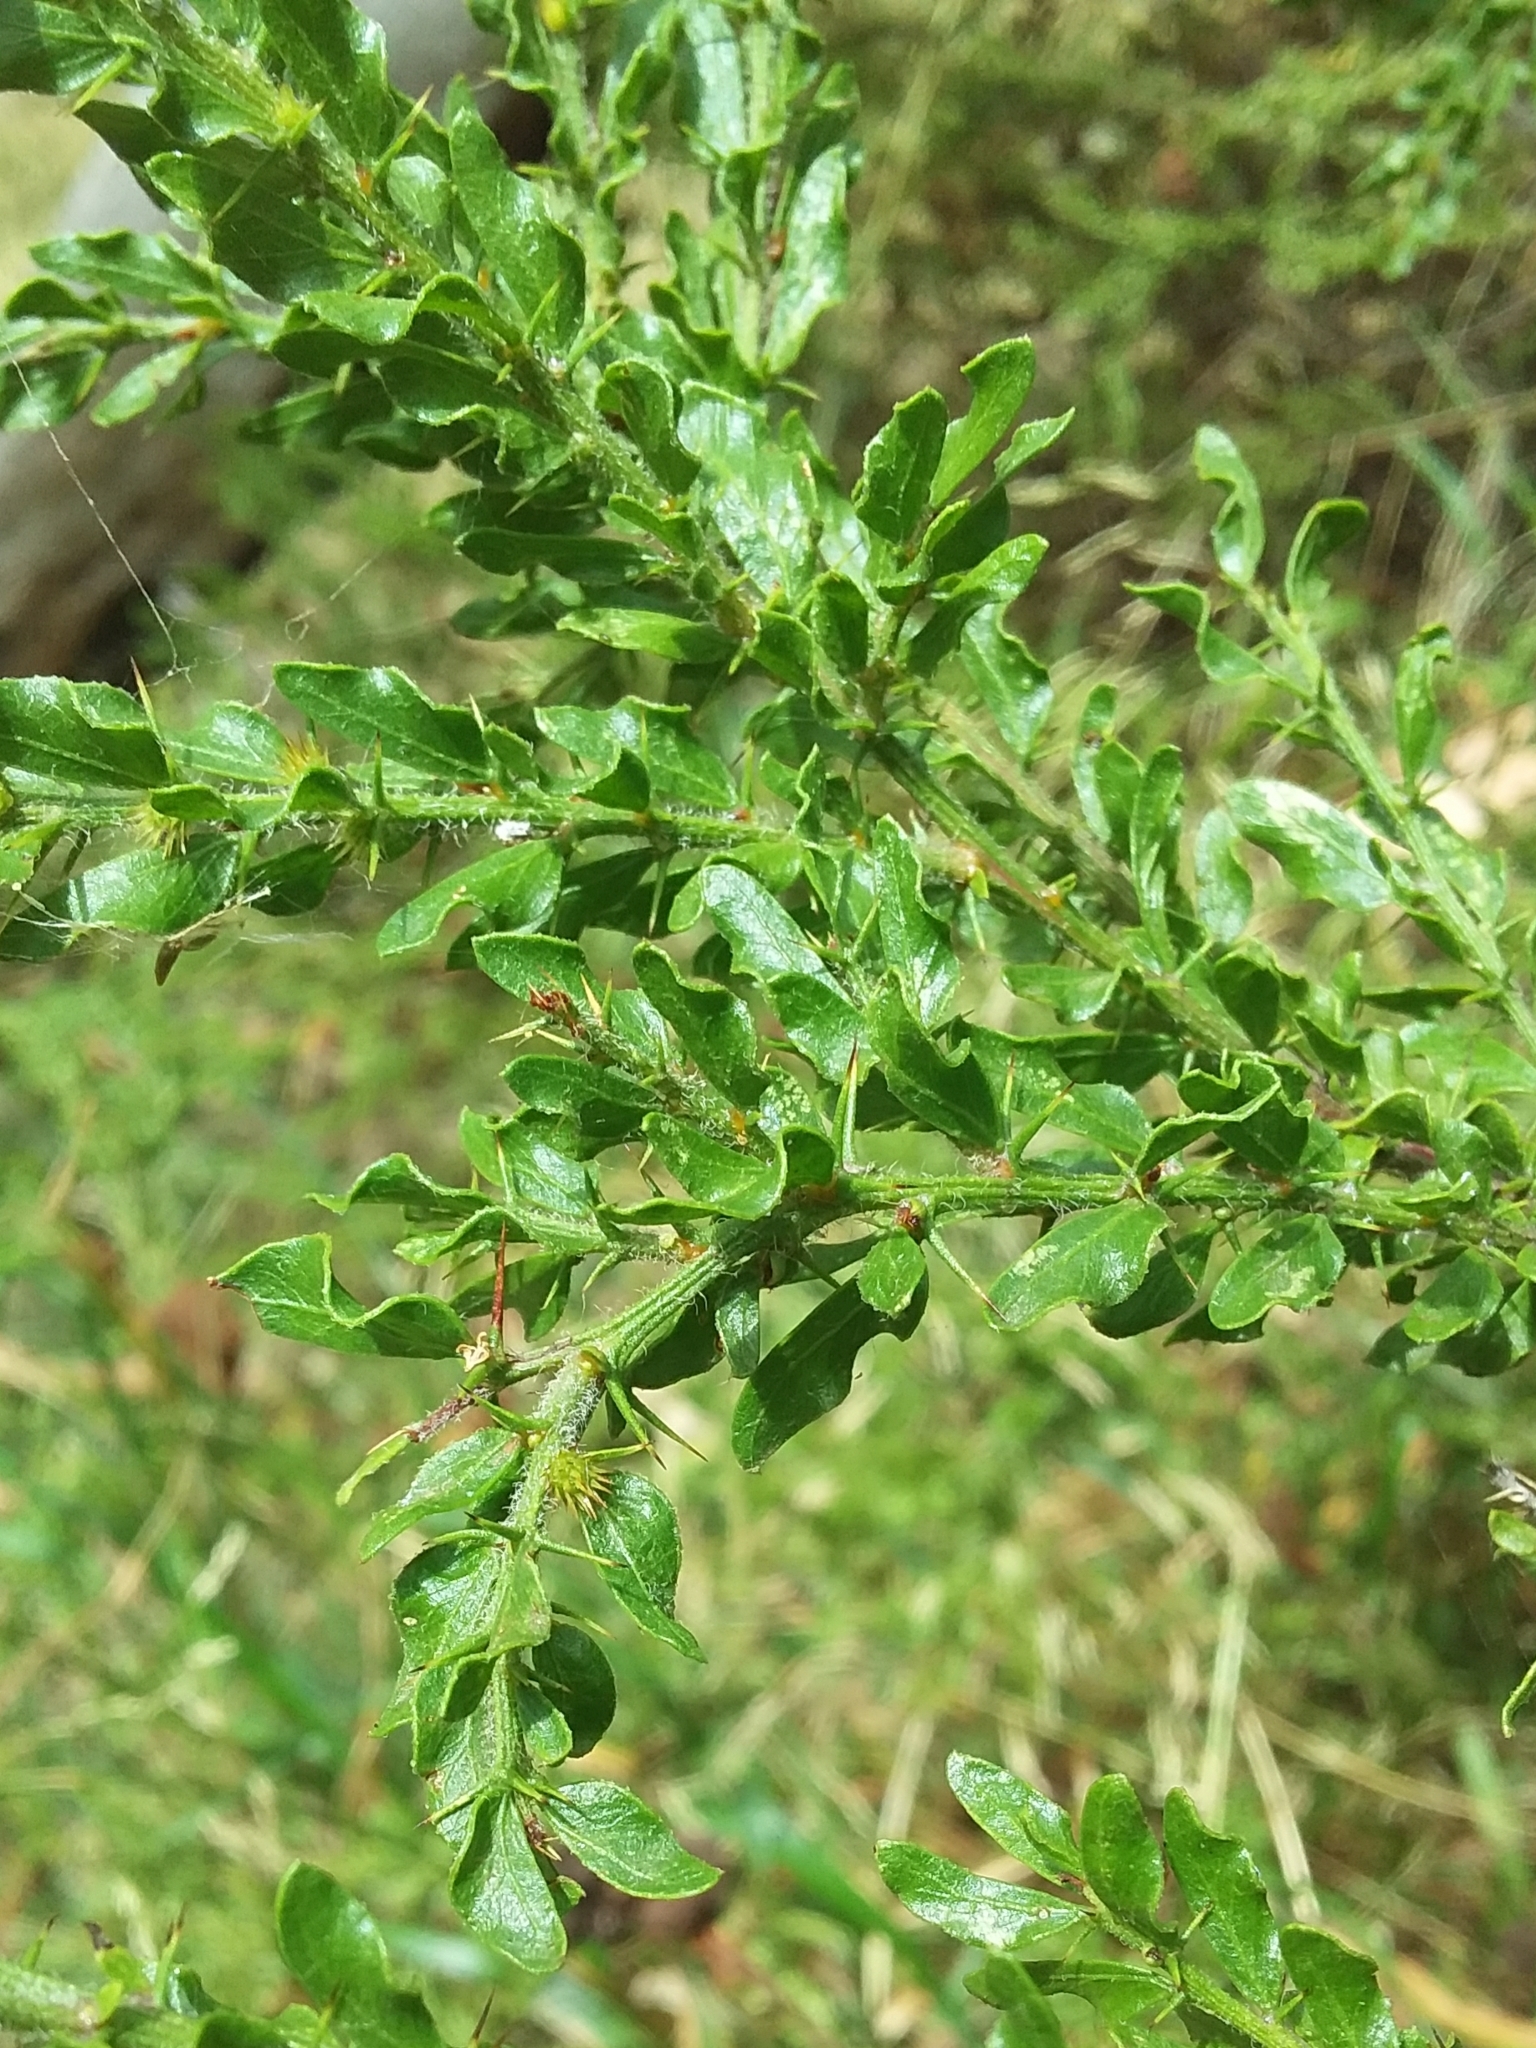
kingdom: Plantae
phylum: Tracheophyta
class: Magnoliopsida
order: Fabales
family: Fabaceae
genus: Acacia
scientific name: Acacia paradoxa
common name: Paradox acacia
